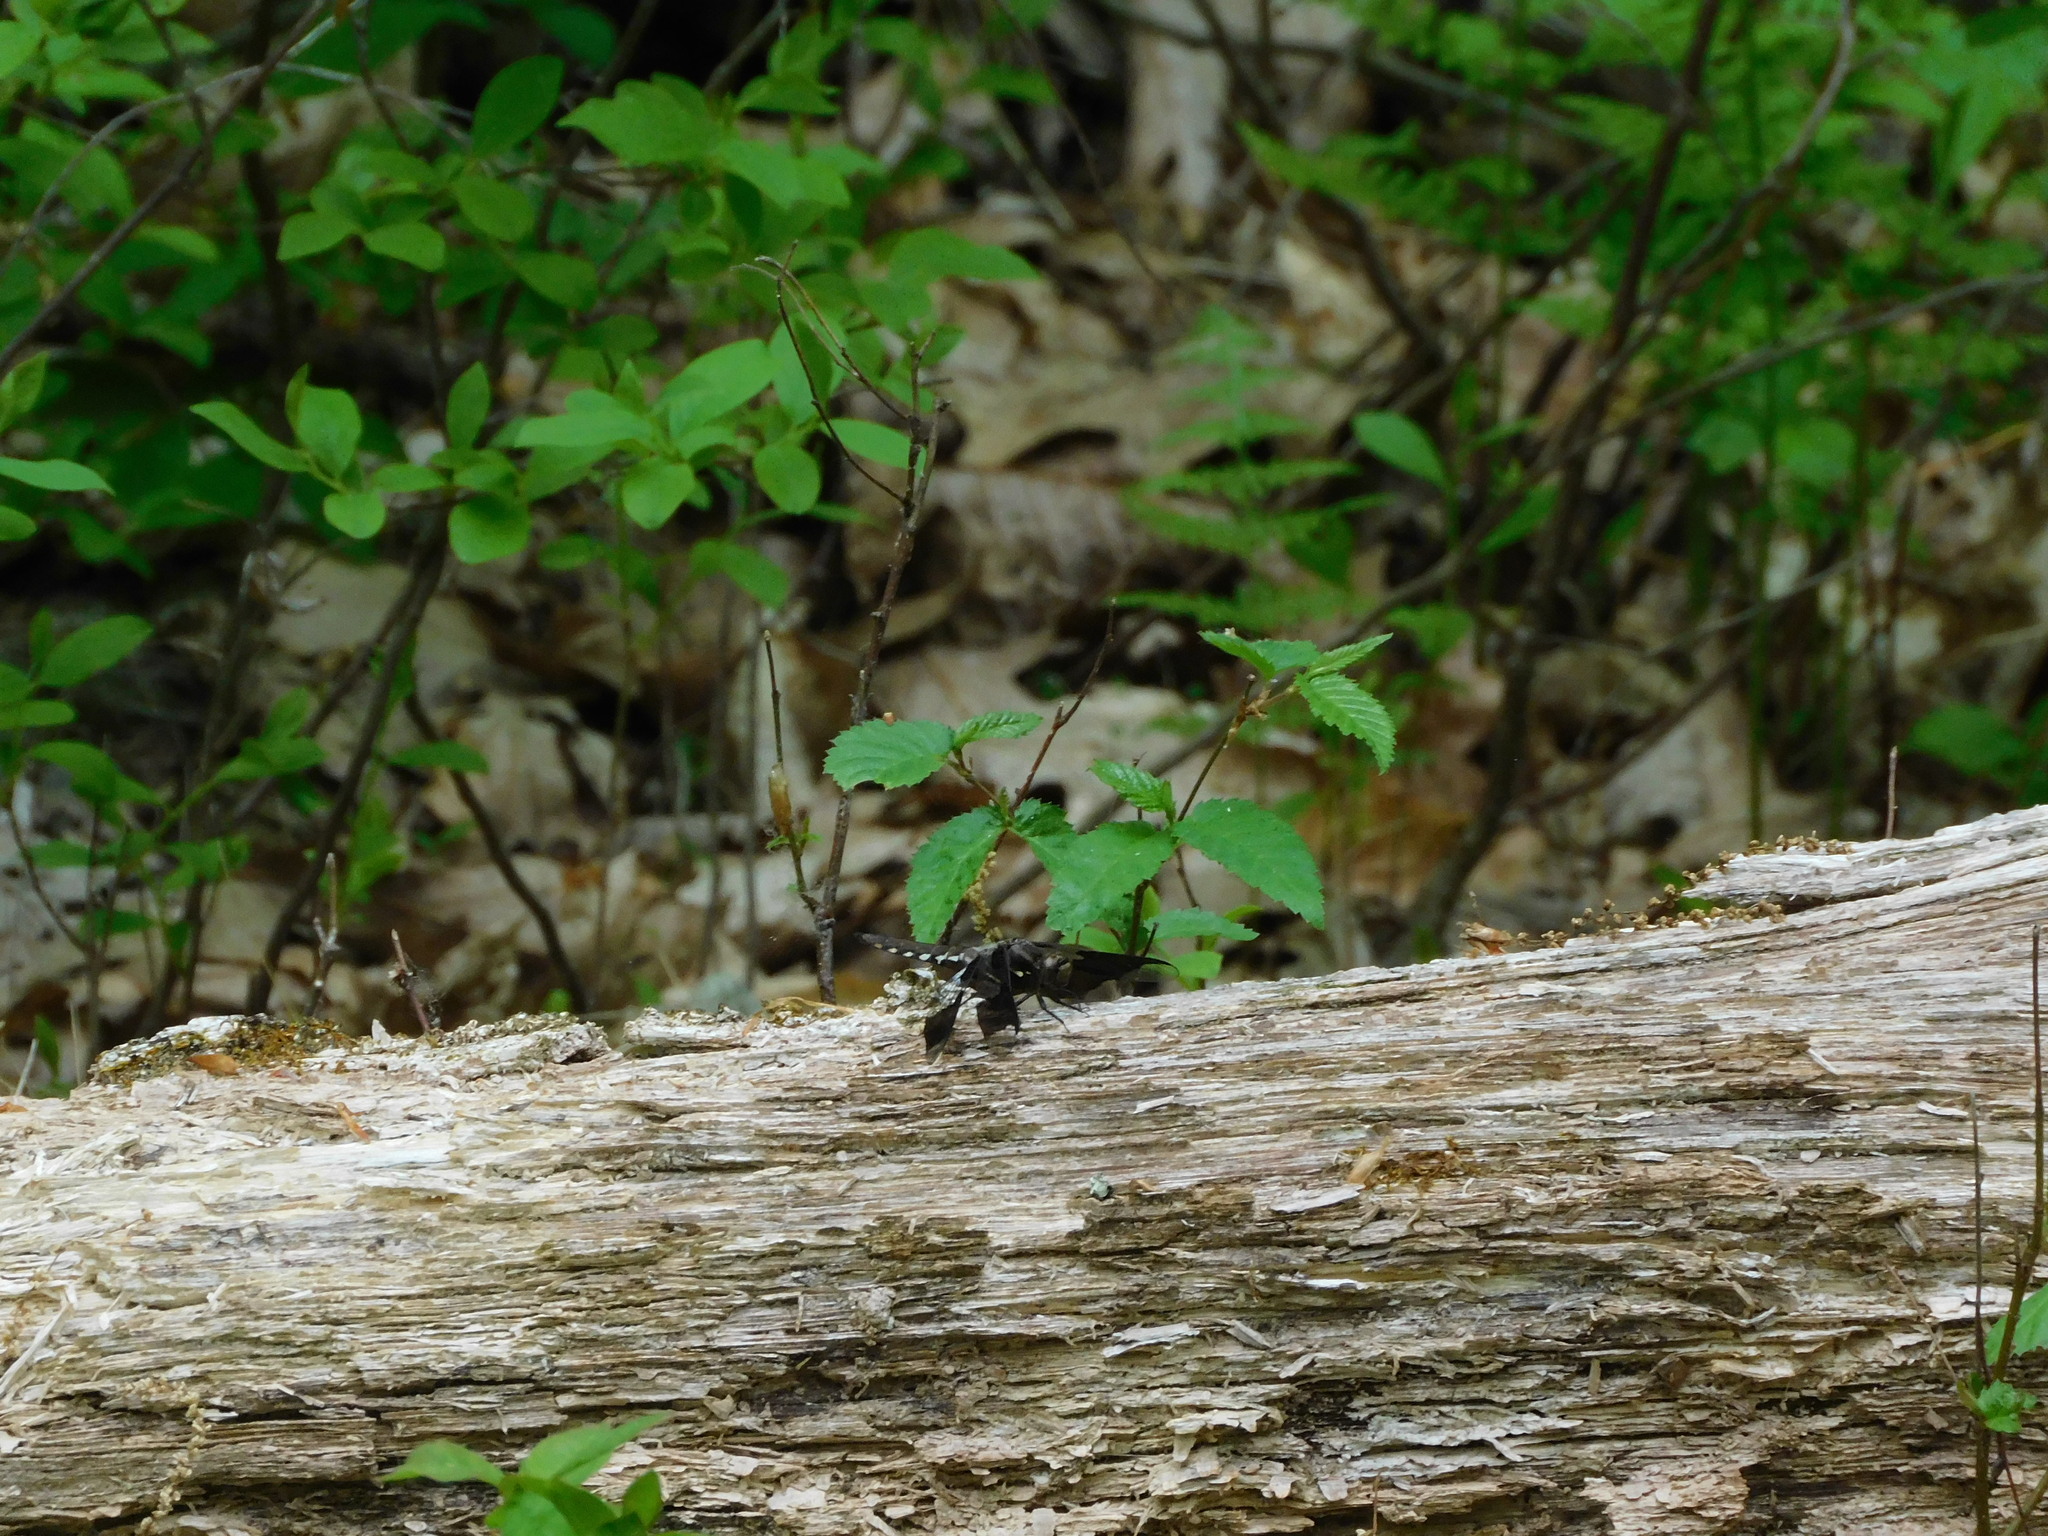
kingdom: Animalia
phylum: Arthropoda
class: Insecta
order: Odonata
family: Libellulidae
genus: Plathemis
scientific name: Plathemis lydia
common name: Common whitetail
